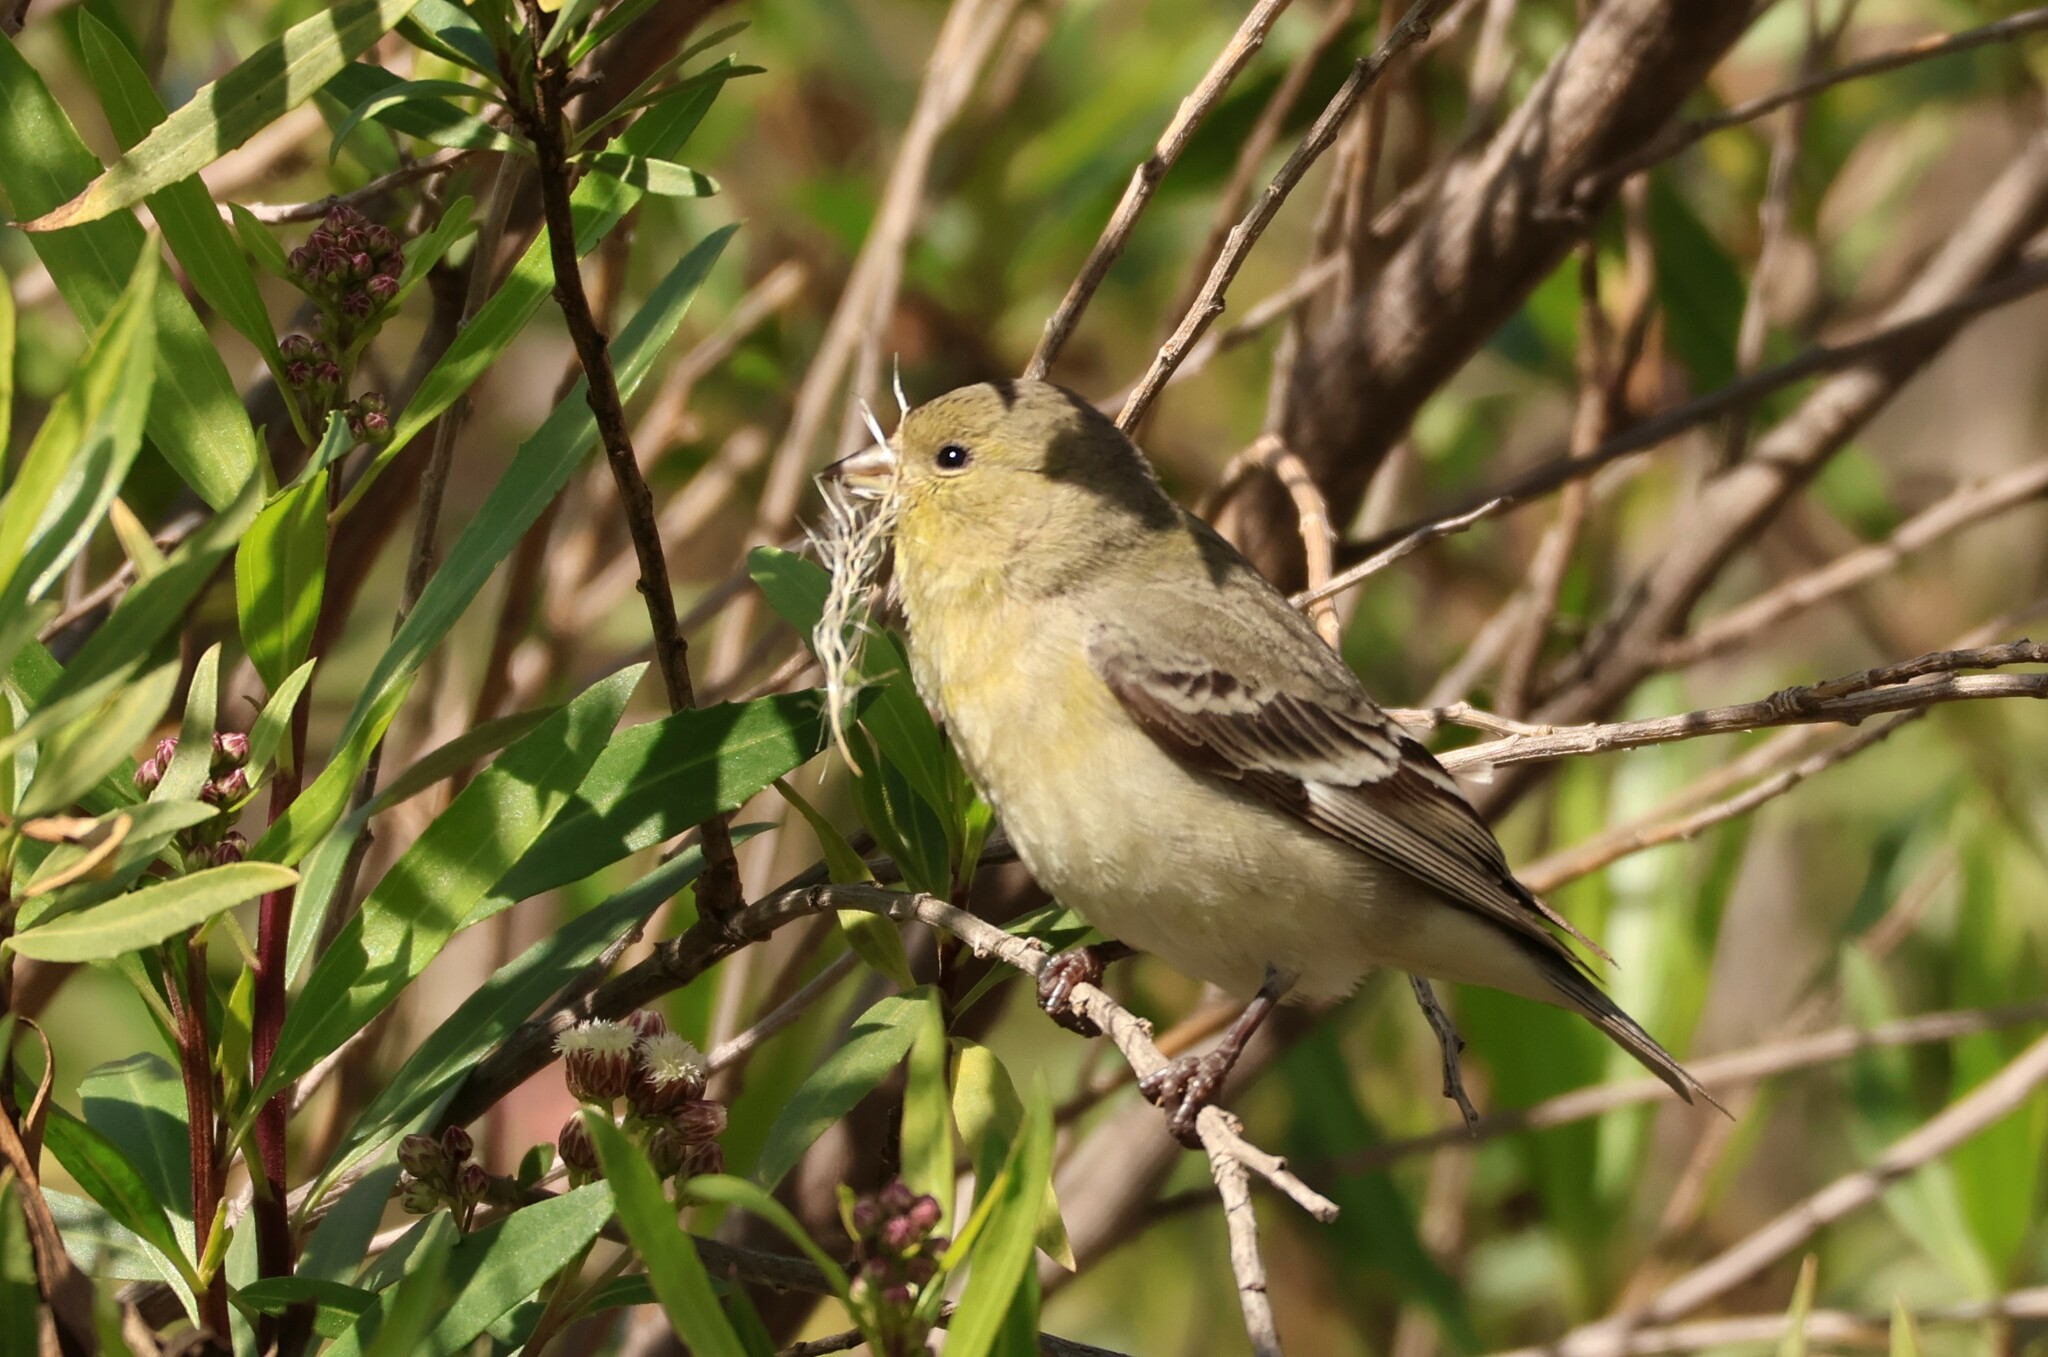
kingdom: Animalia
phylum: Chordata
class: Aves
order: Passeriformes
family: Fringillidae
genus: Spinus
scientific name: Spinus psaltria
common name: Lesser goldfinch
